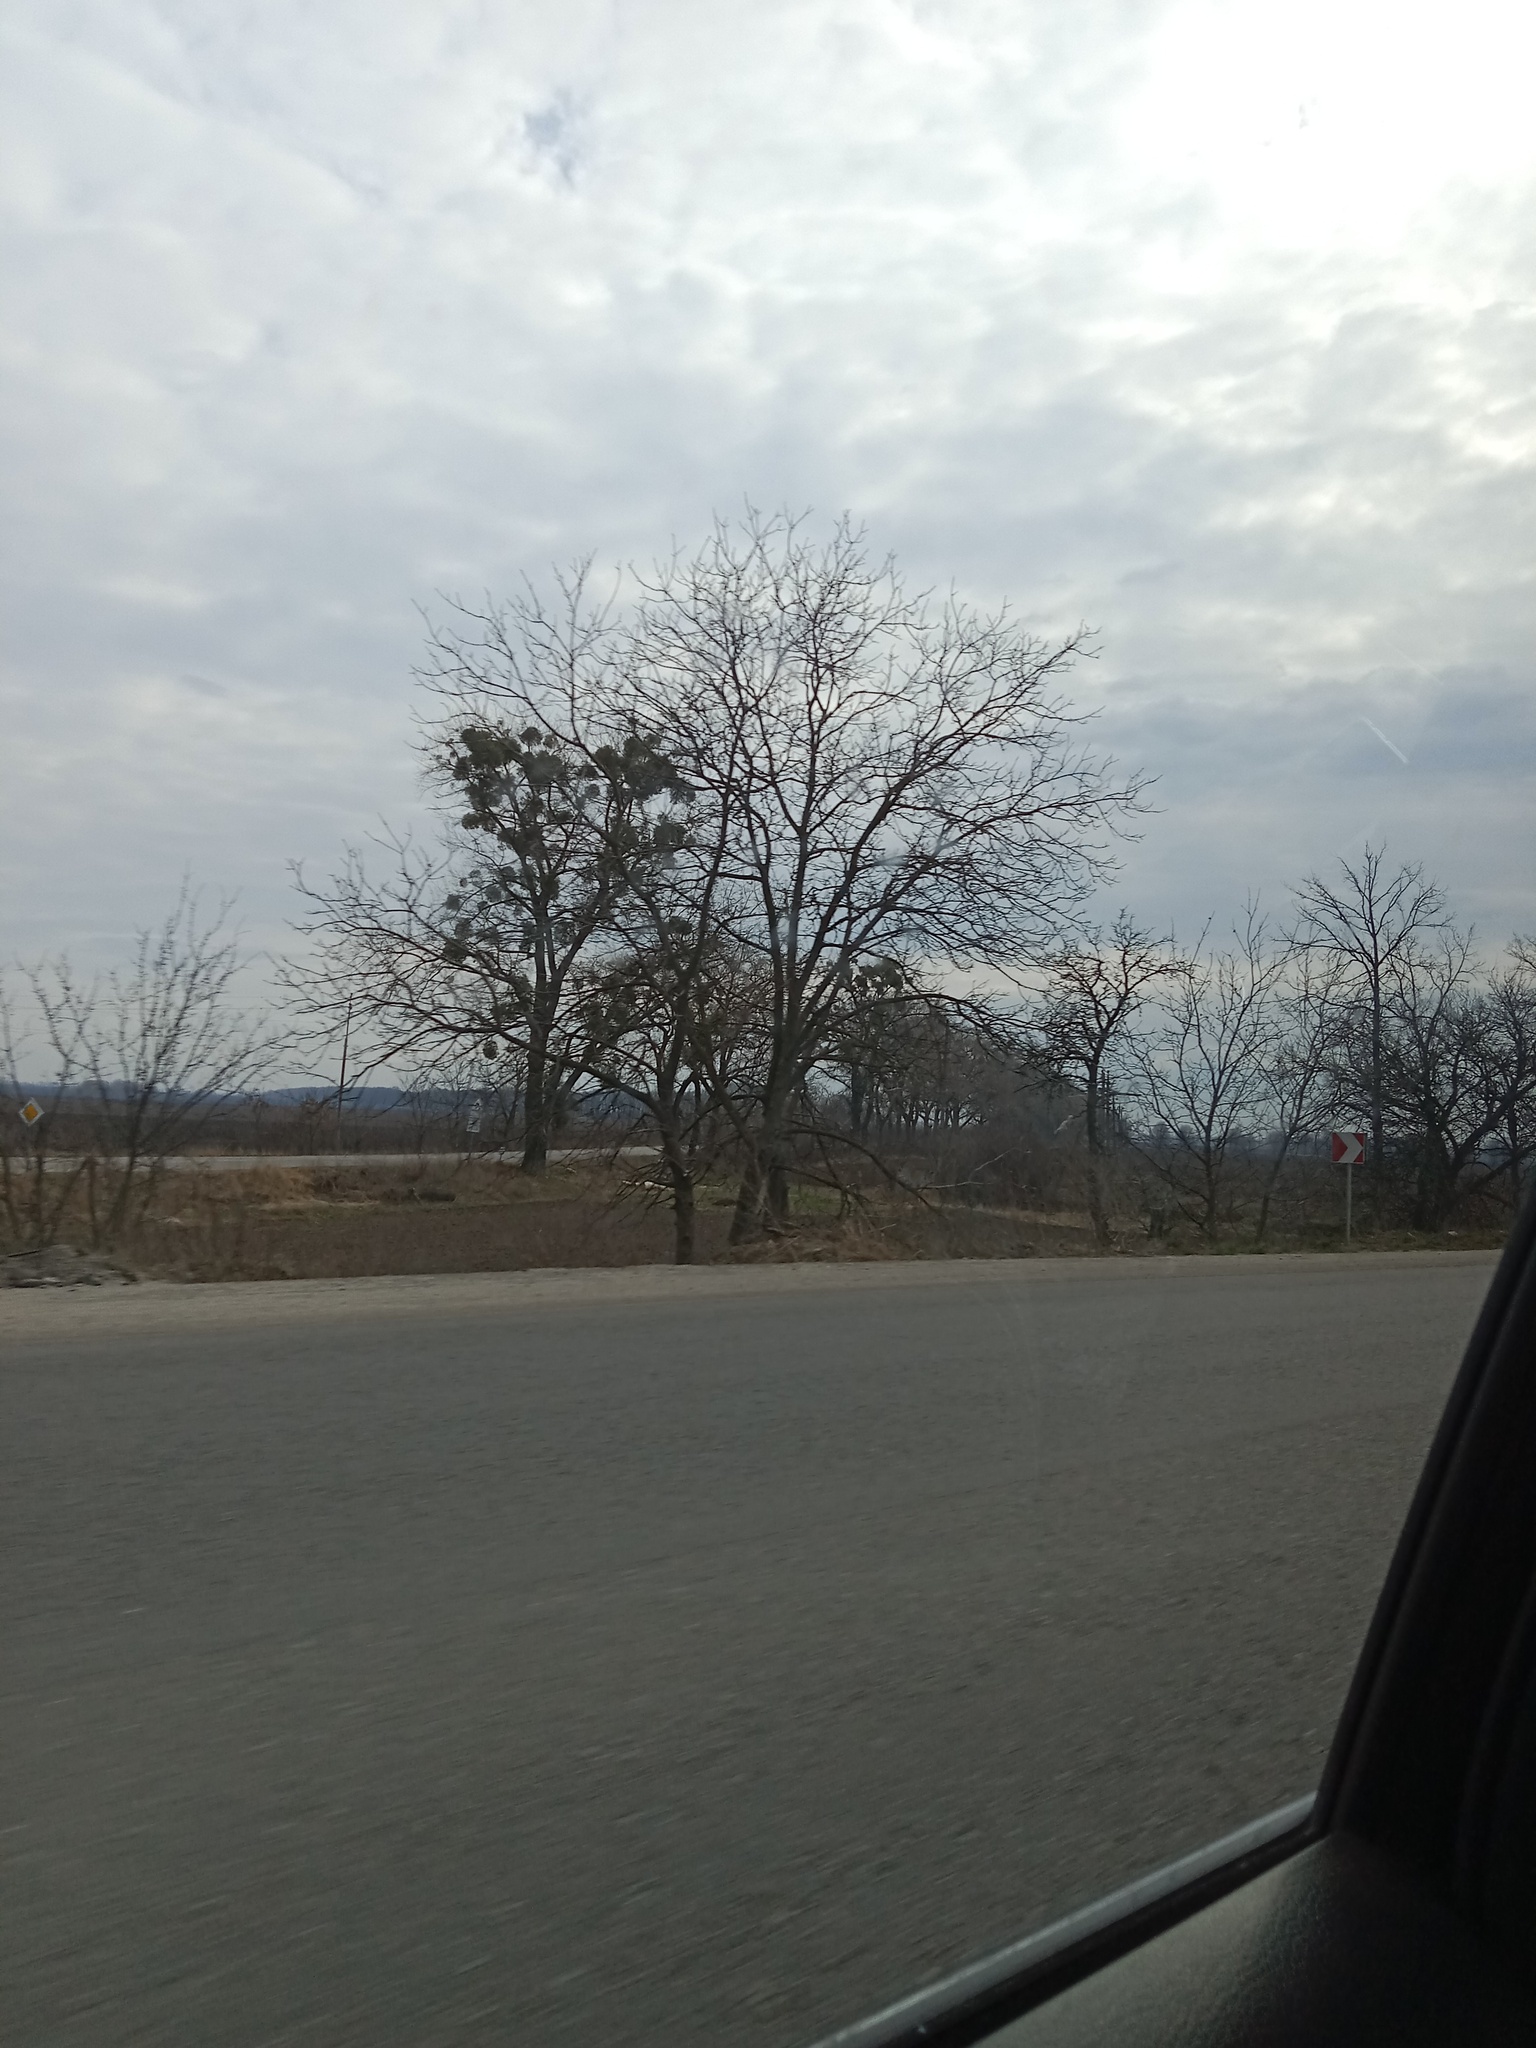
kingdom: Plantae
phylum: Tracheophyta
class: Magnoliopsida
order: Santalales
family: Viscaceae
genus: Viscum
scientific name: Viscum album
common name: Mistletoe
